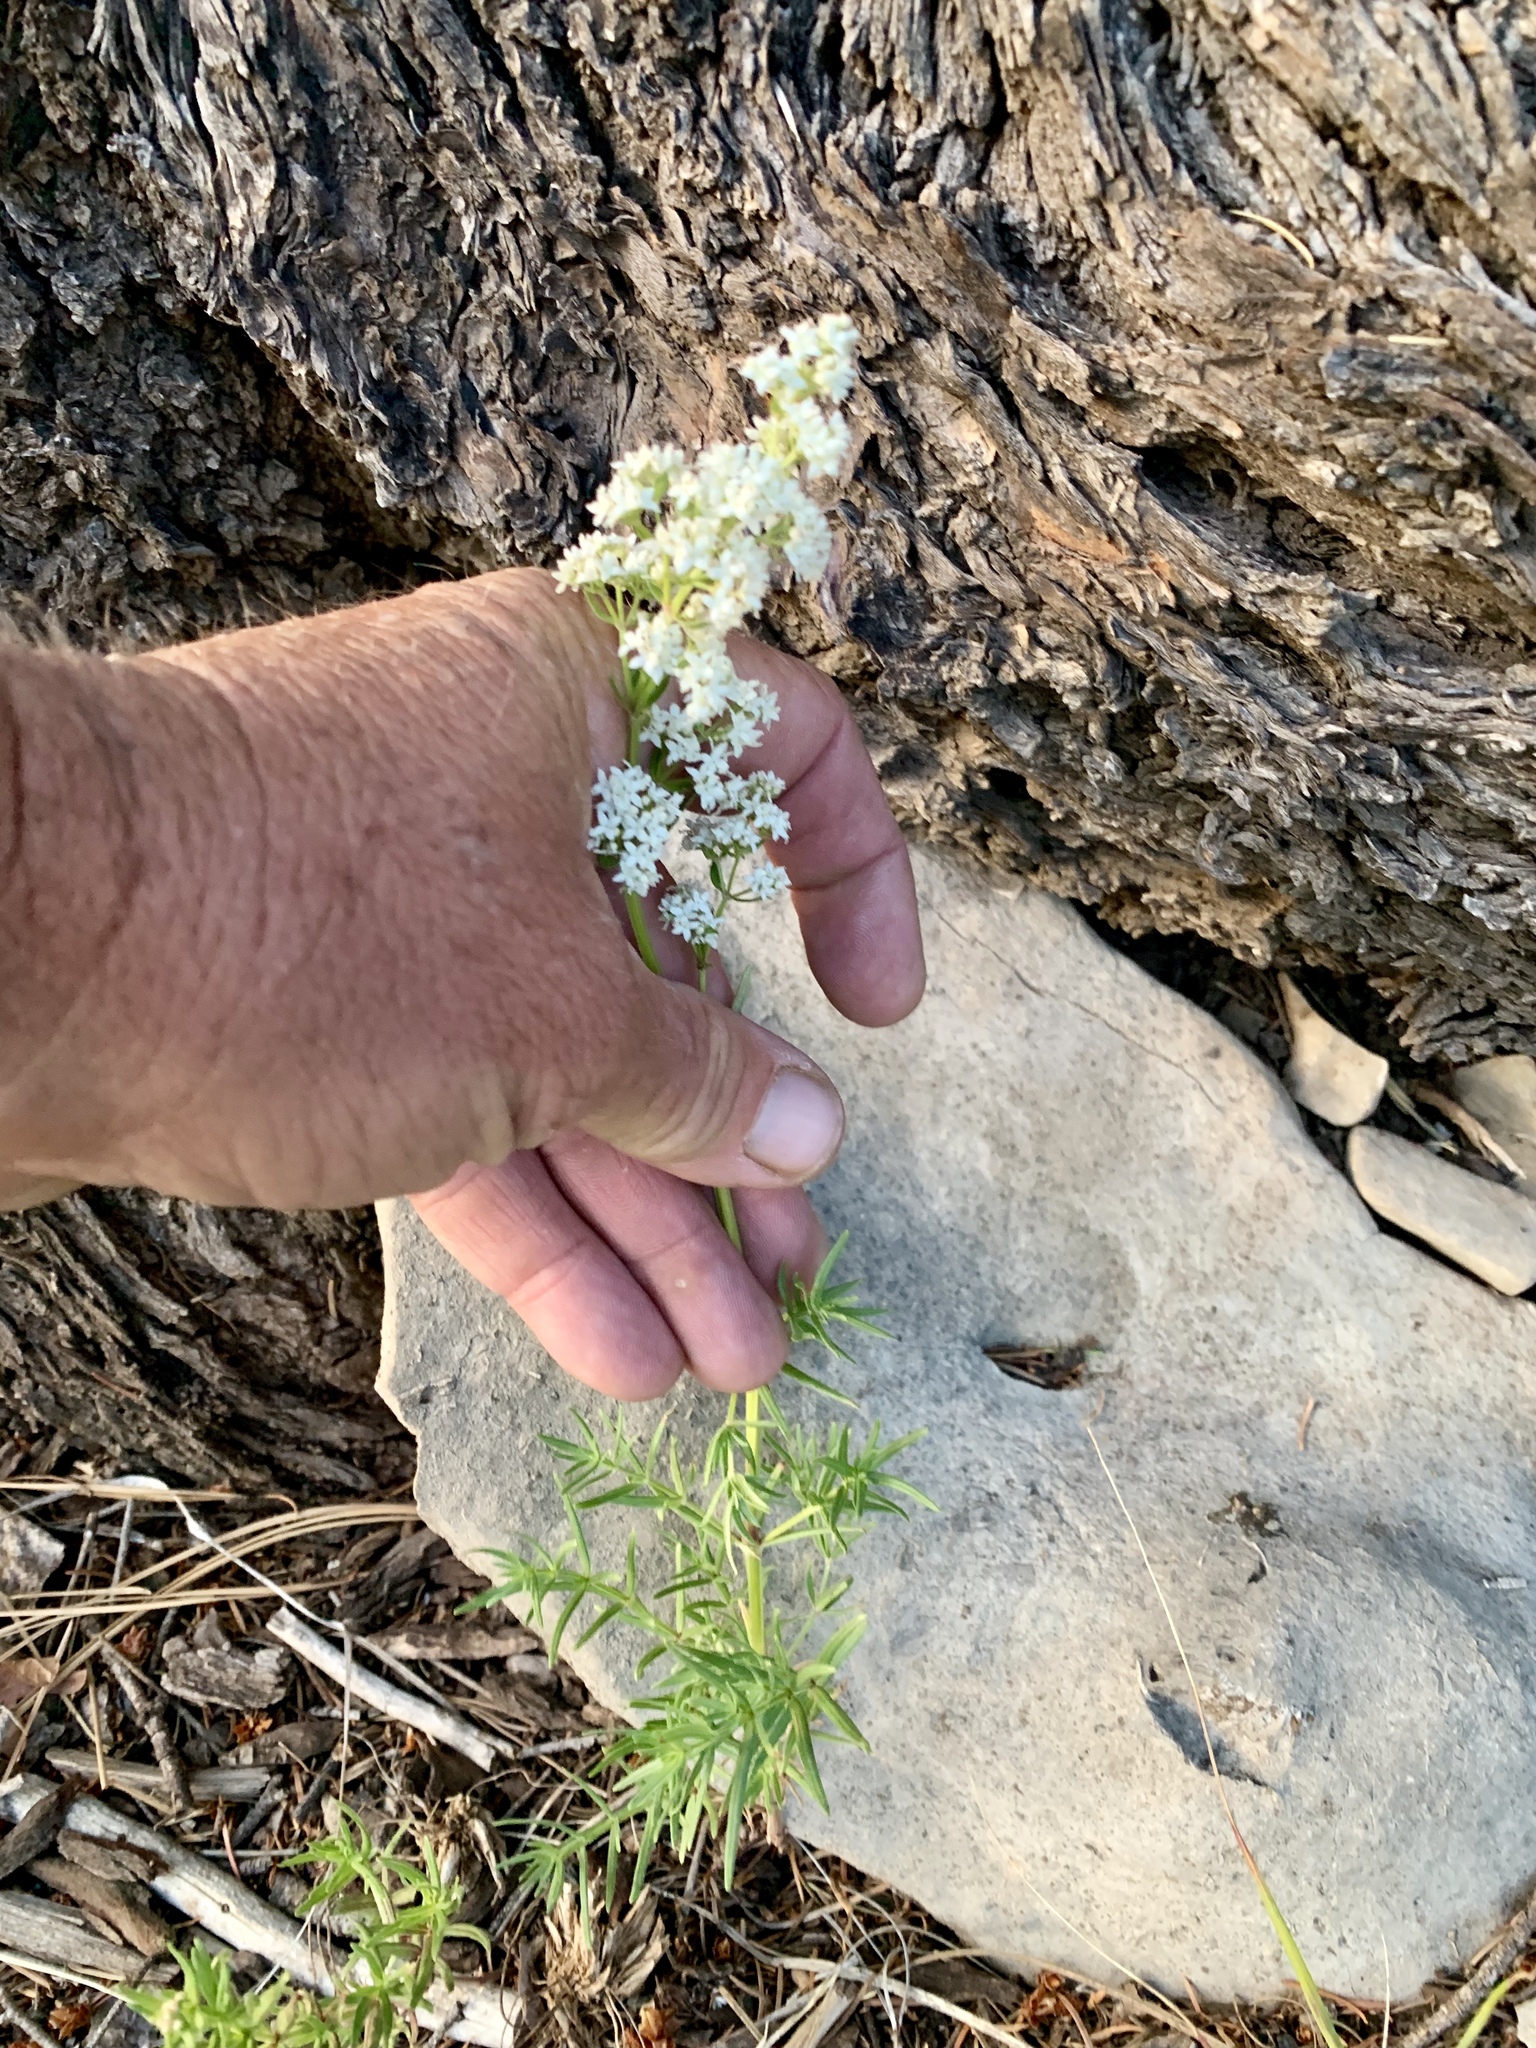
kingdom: Plantae
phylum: Tracheophyta
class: Magnoliopsida
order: Gentianales
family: Rubiaceae
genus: Galium
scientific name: Galium boreale
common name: Northern bedstraw
